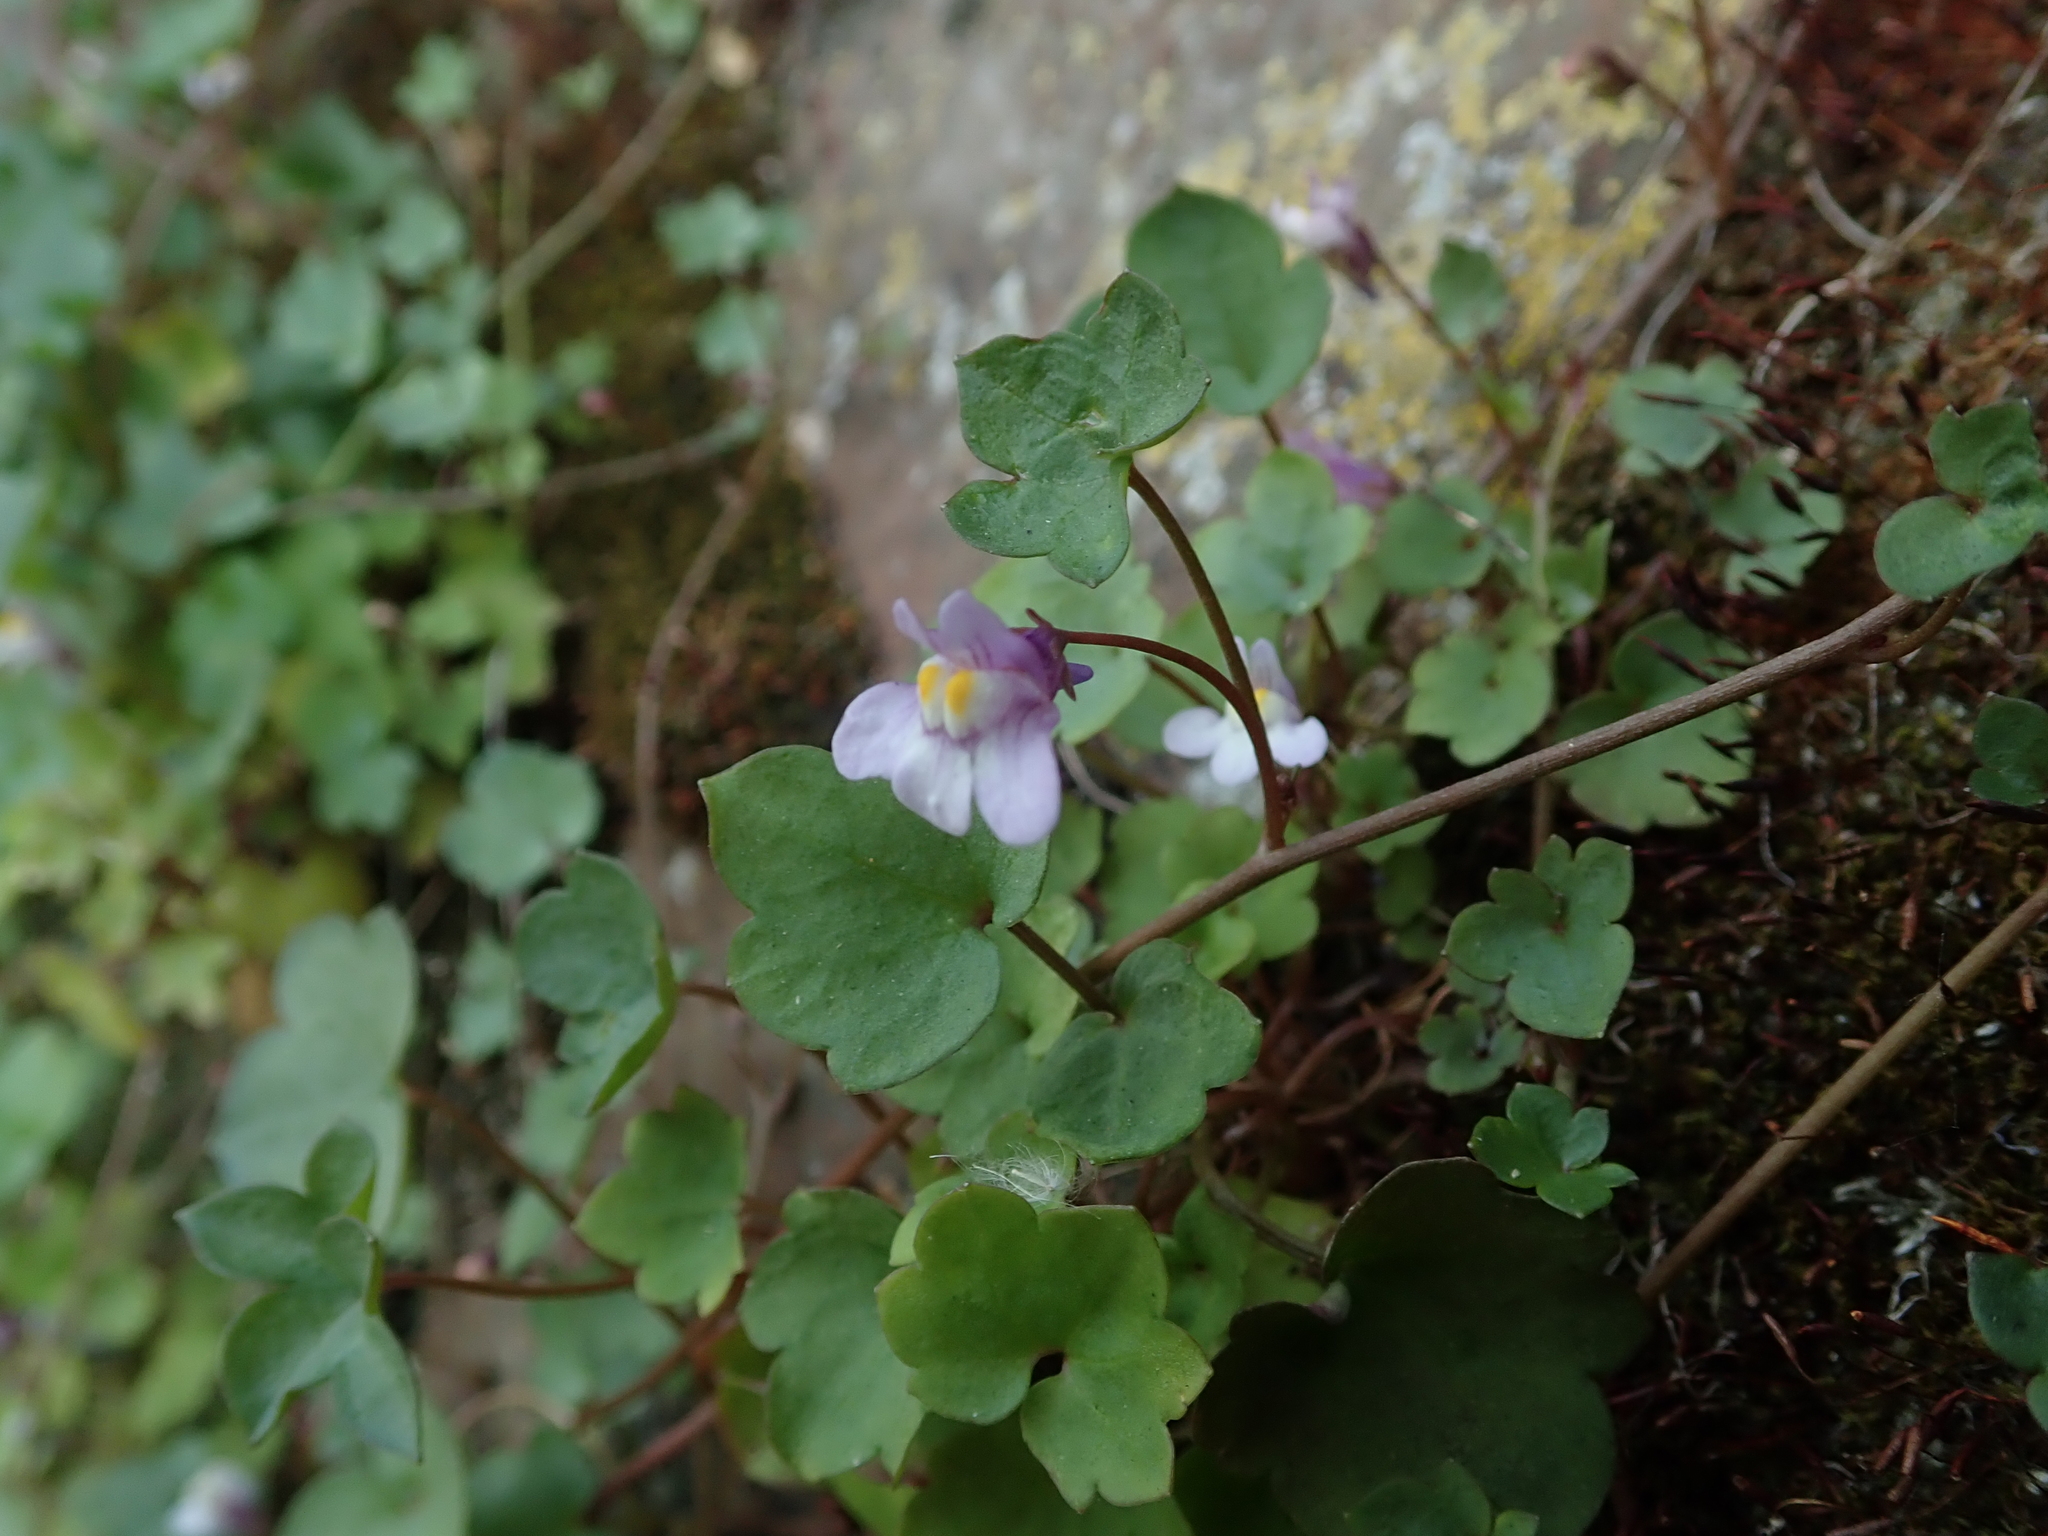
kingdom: Plantae
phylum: Tracheophyta
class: Magnoliopsida
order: Lamiales
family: Plantaginaceae
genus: Cymbalaria
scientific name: Cymbalaria muralis
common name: Ivy-leaved toadflax
